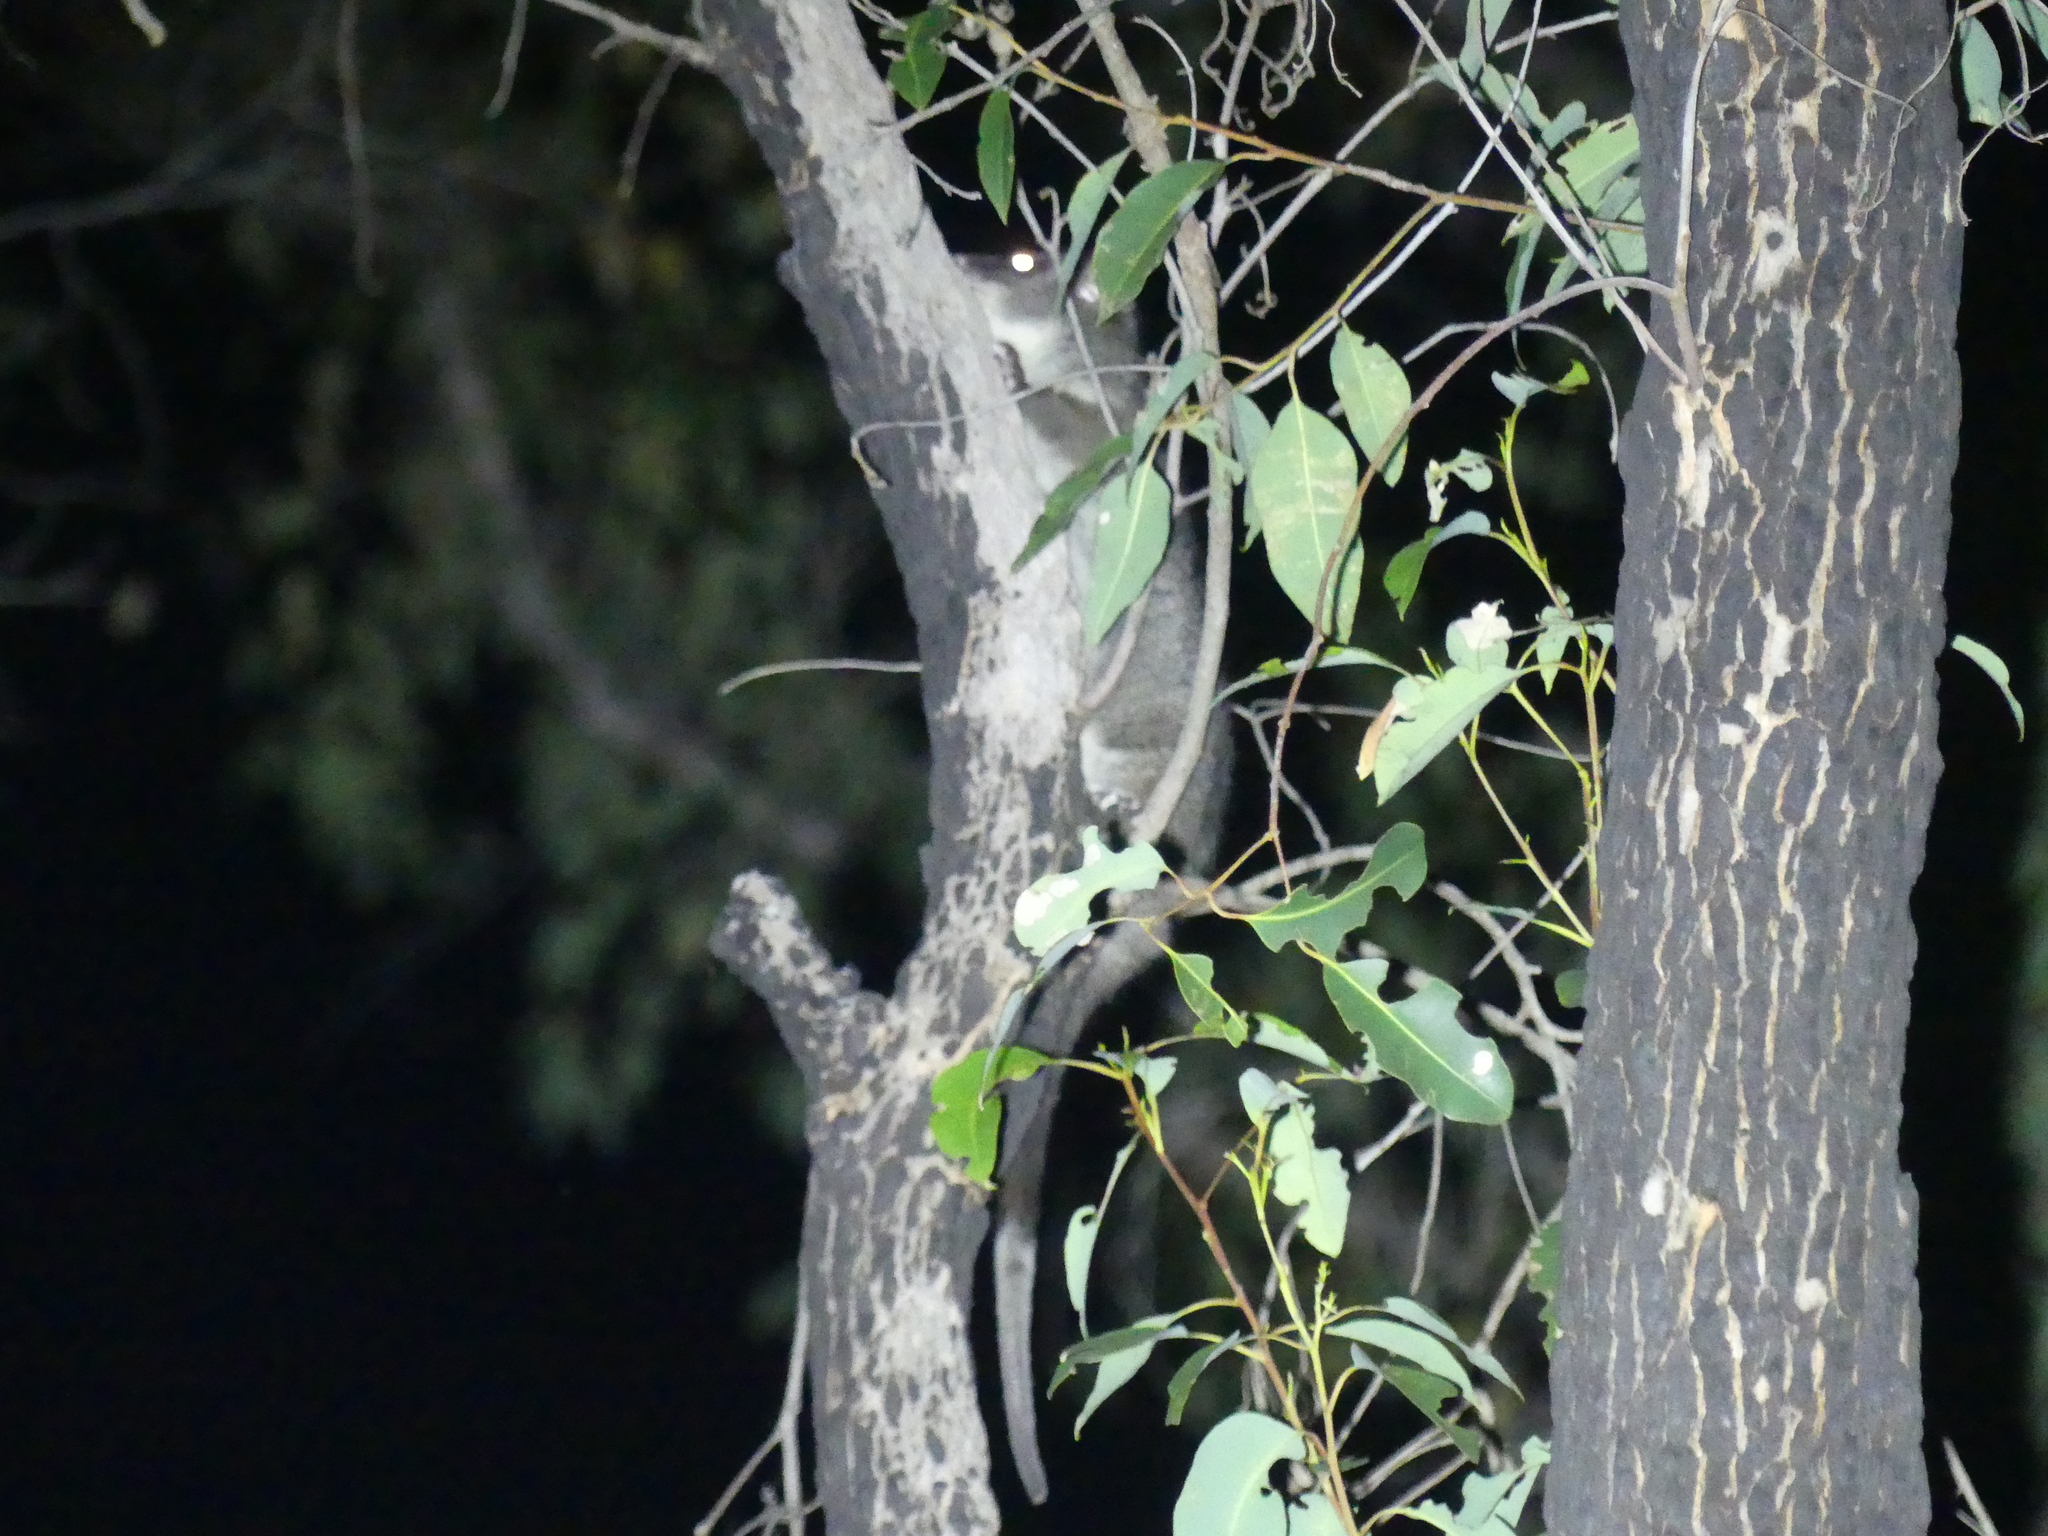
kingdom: Animalia
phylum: Chordata
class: Mammalia
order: Diprotodontia
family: Pseudocheiridae
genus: Pseudocheirus
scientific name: Pseudocheirus peregrinus
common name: Common ringtail possum
